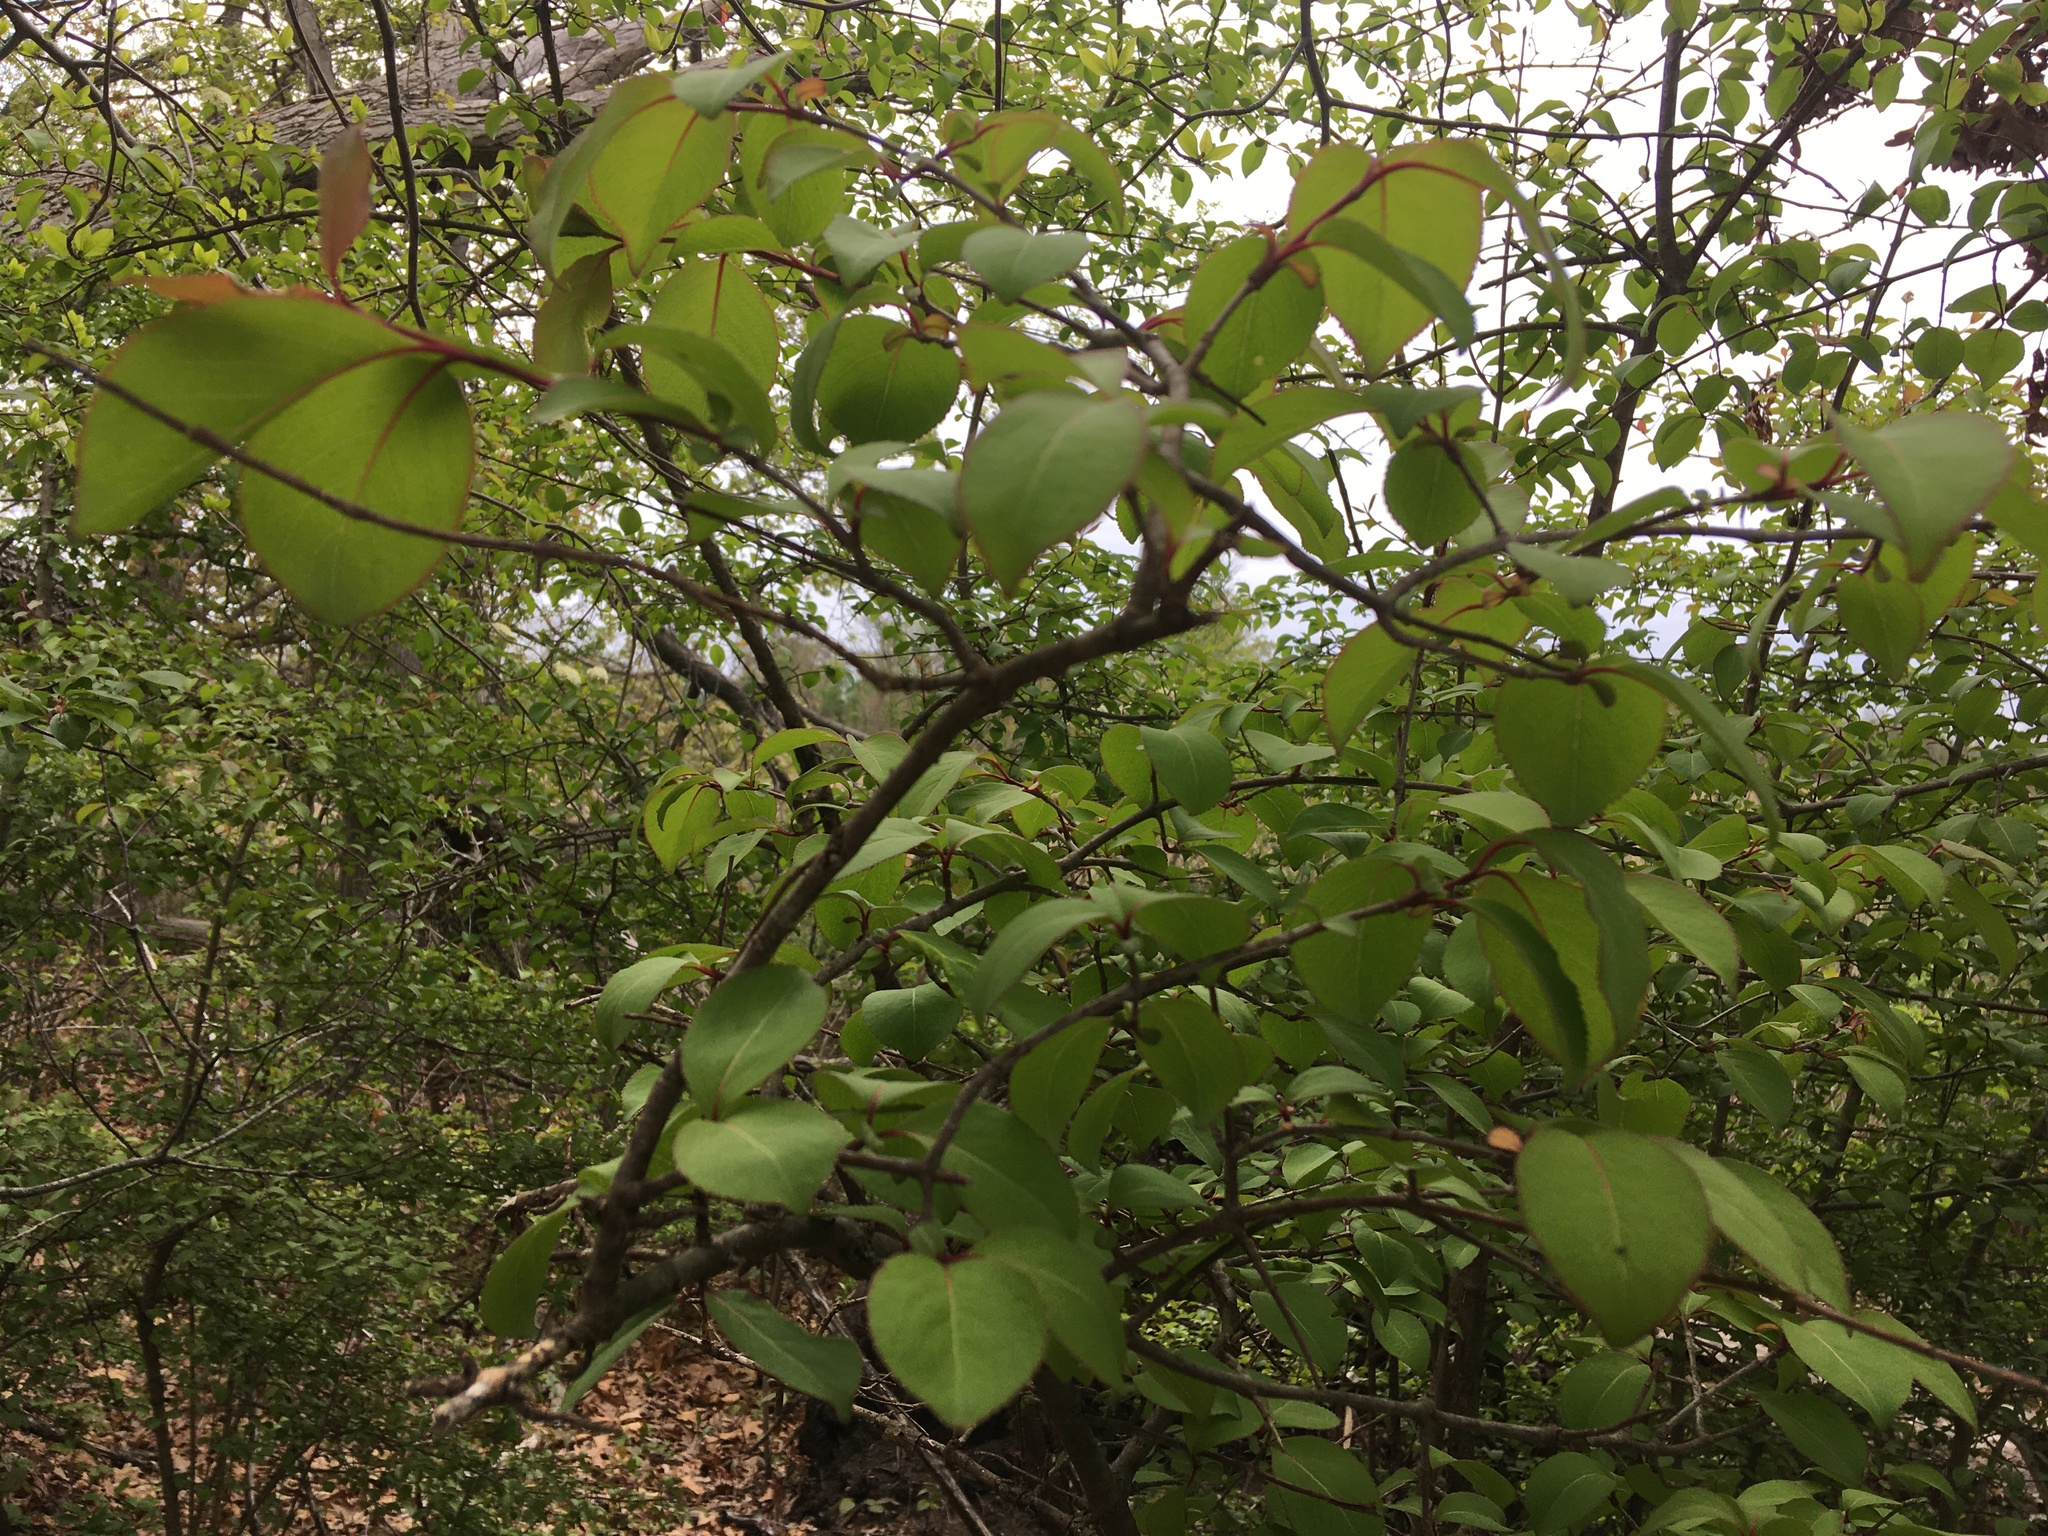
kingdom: Plantae
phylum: Tracheophyta
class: Magnoliopsida
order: Dipsacales
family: Viburnaceae
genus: Viburnum
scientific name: Viburnum prunifolium
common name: Black haw
